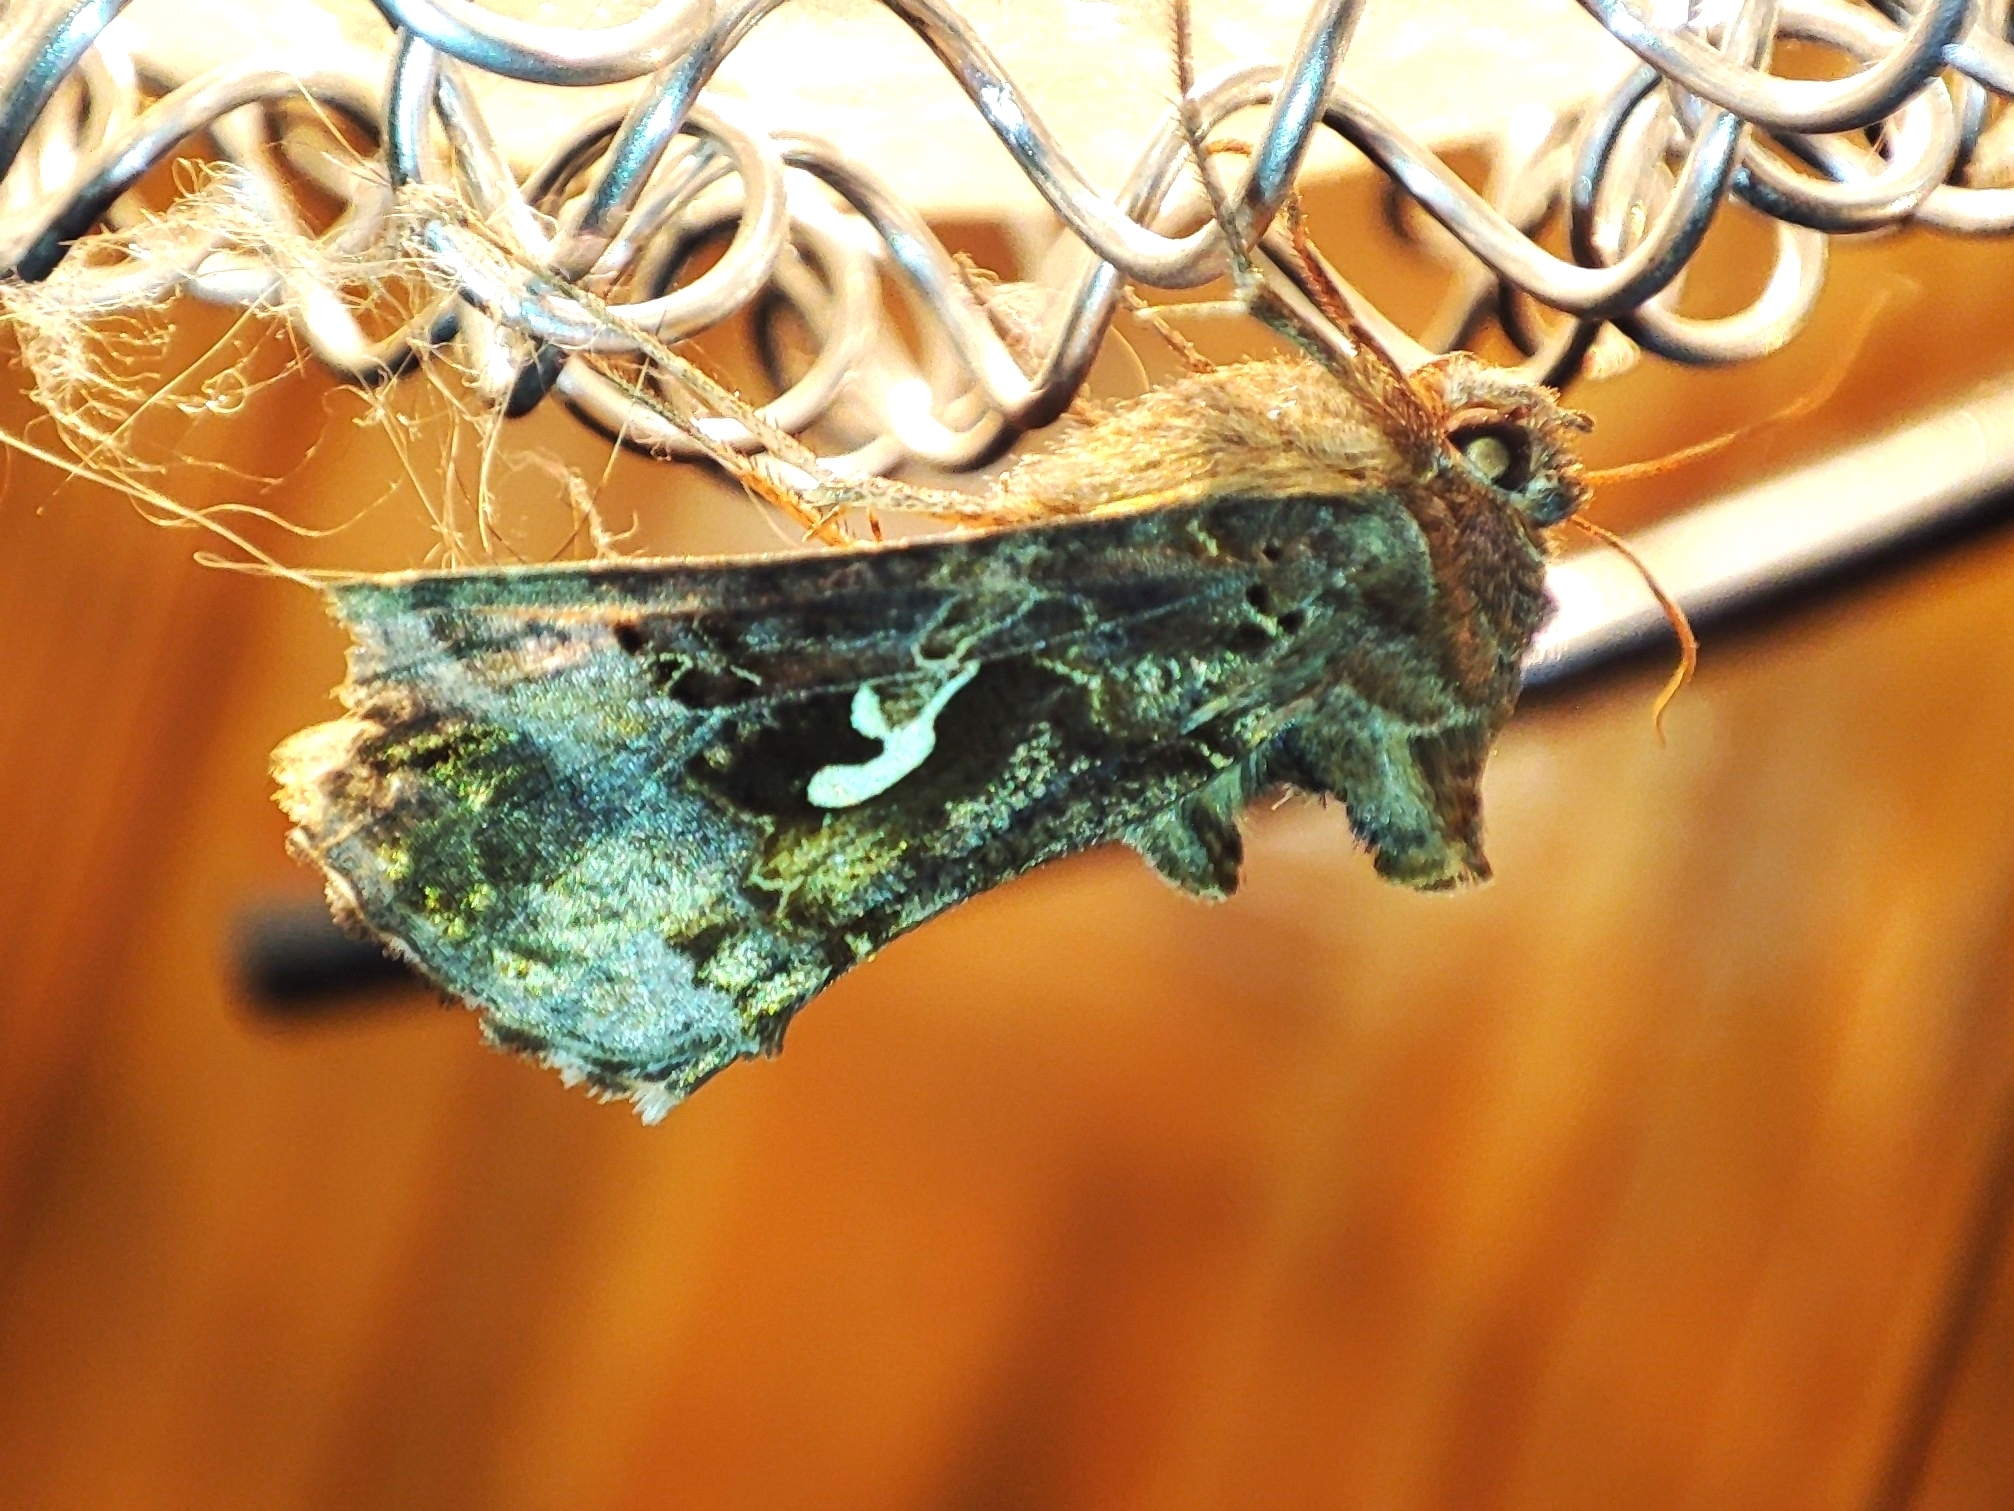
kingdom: Animalia
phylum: Arthropoda
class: Insecta
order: Lepidoptera
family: Noctuidae
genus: Autographa
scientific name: Autographa gamma
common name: Silver y
